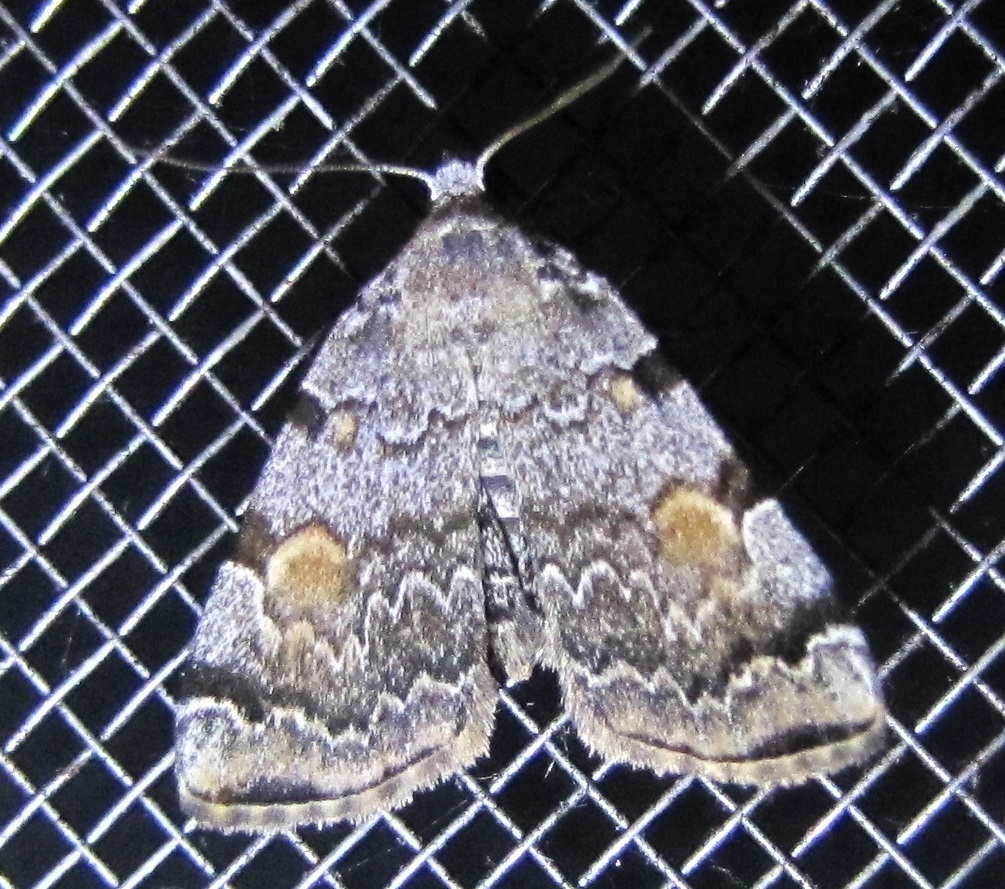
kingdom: Animalia
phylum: Arthropoda
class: Insecta
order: Lepidoptera
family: Erebidae
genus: Idia
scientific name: Idia americalis
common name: American idia moth
